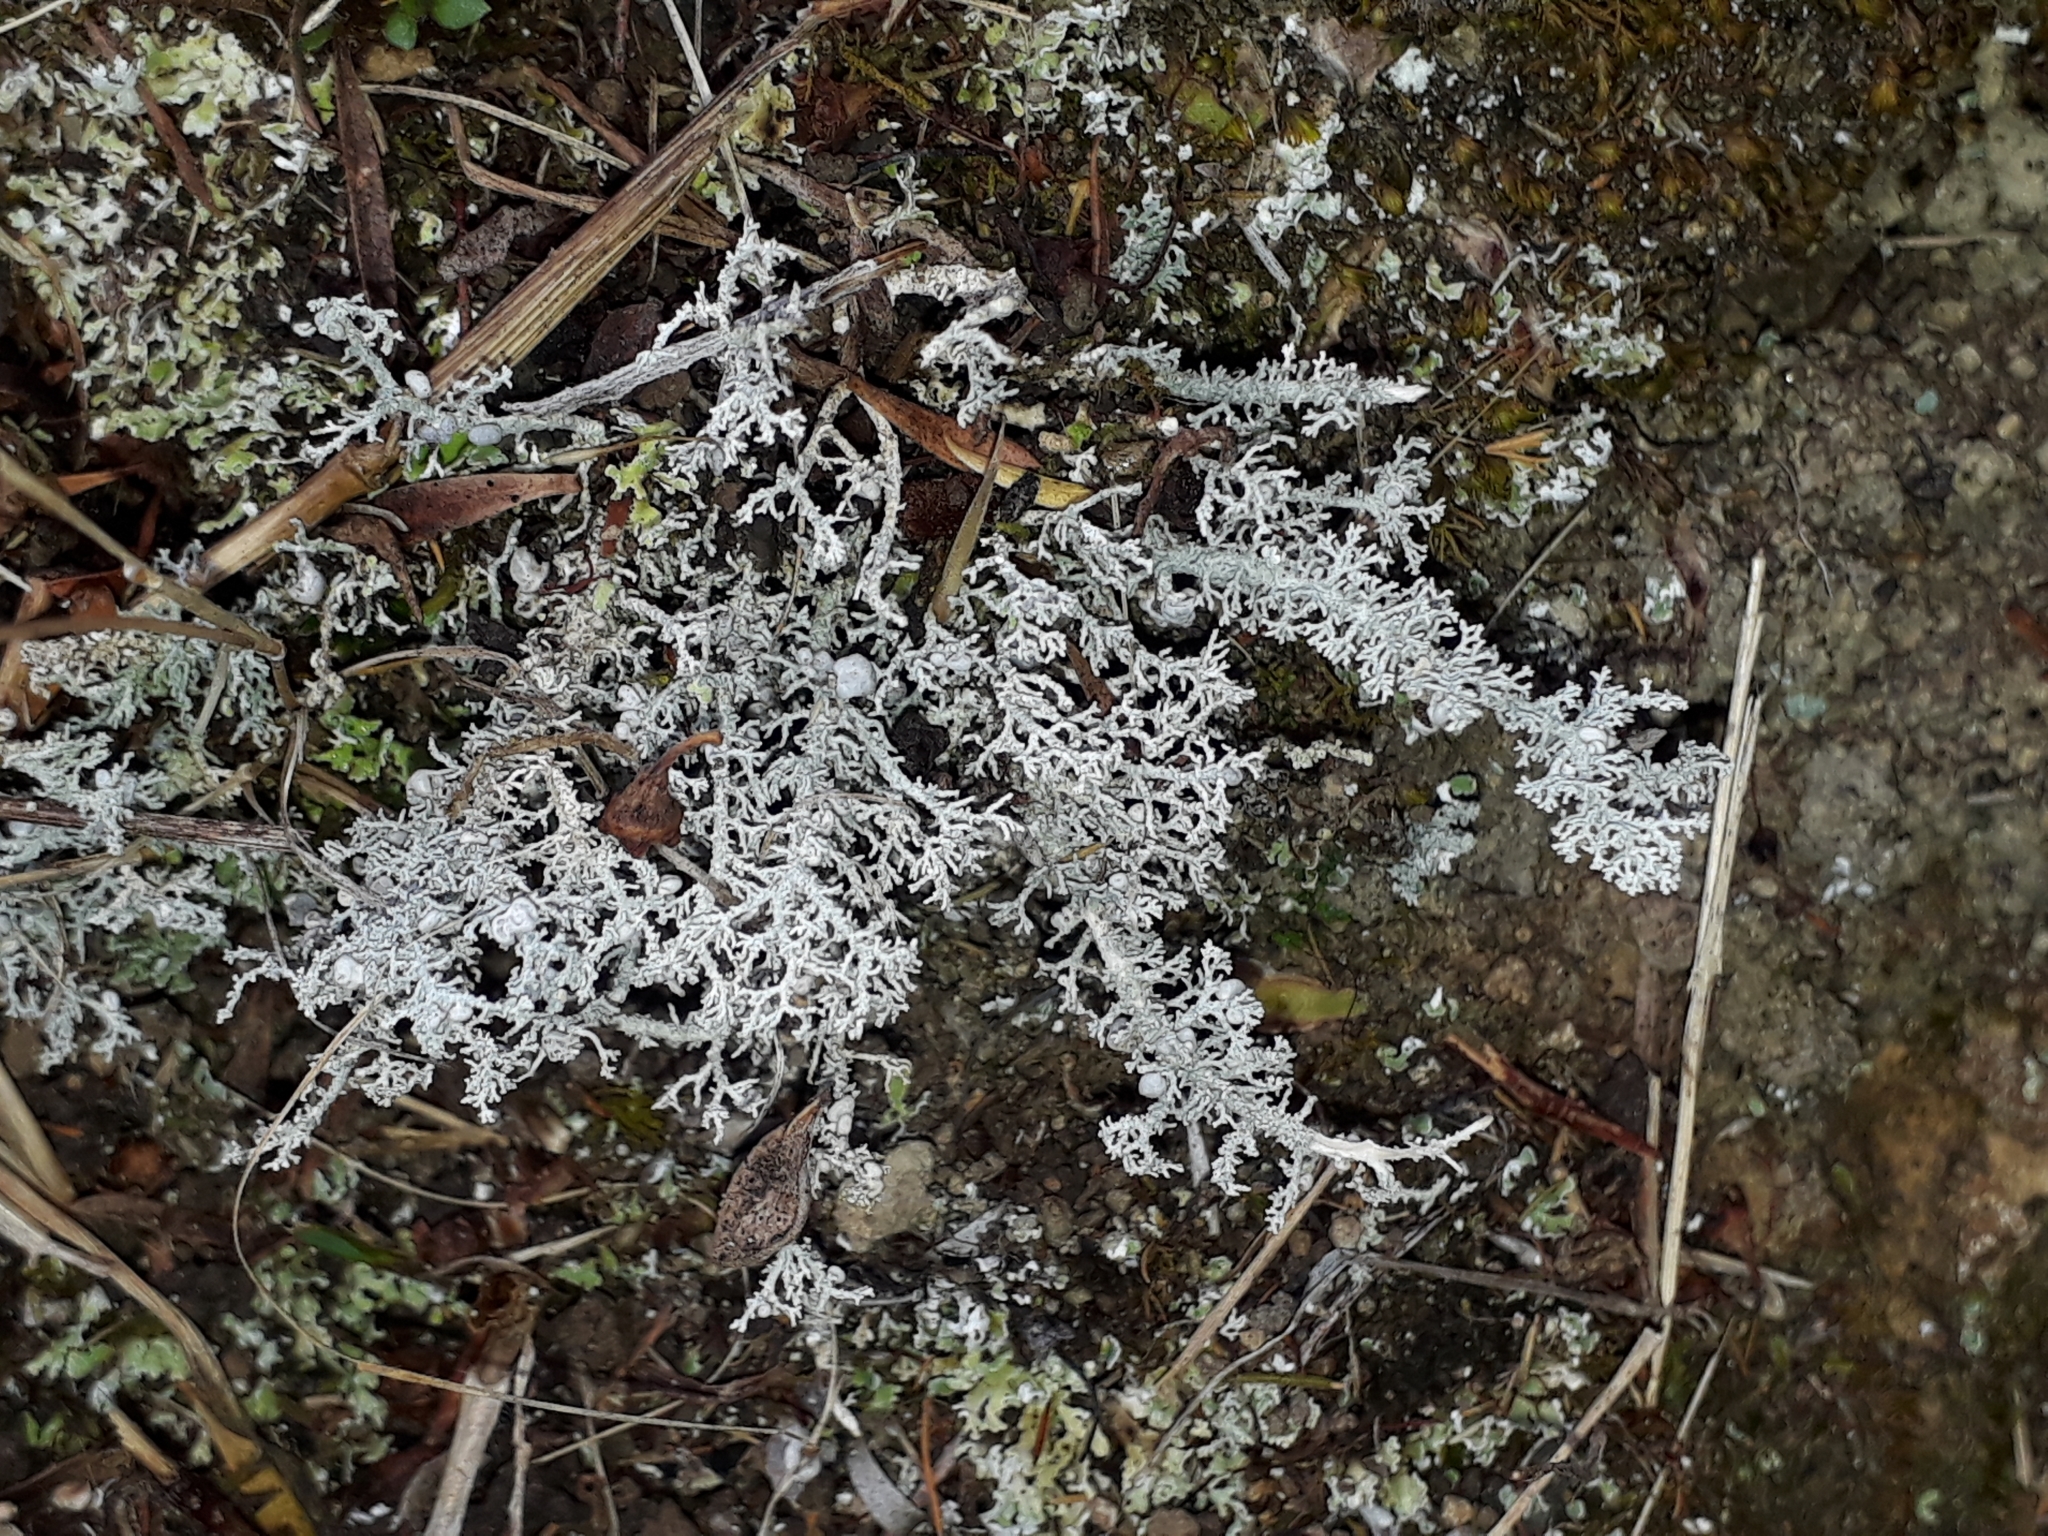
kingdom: Fungi
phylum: Ascomycota
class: Lecanoromycetes
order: Lecanorales
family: Stereocaulaceae
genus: Stereocaulon
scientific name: Stereocaulon ramulosum
